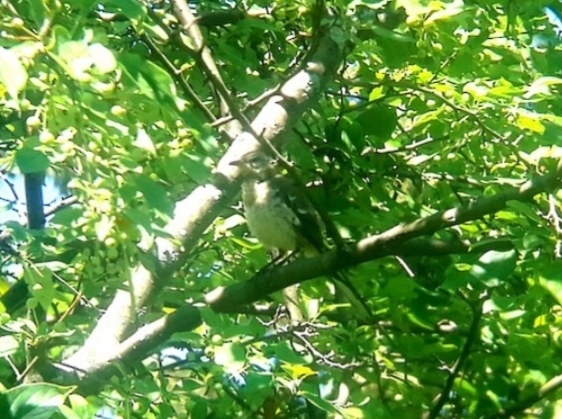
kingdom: Animalia
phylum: Chordata
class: Aves
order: Passeriformes
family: Mimidae
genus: Mimus
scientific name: Mimus polyglottos
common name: Northern mockingbird
